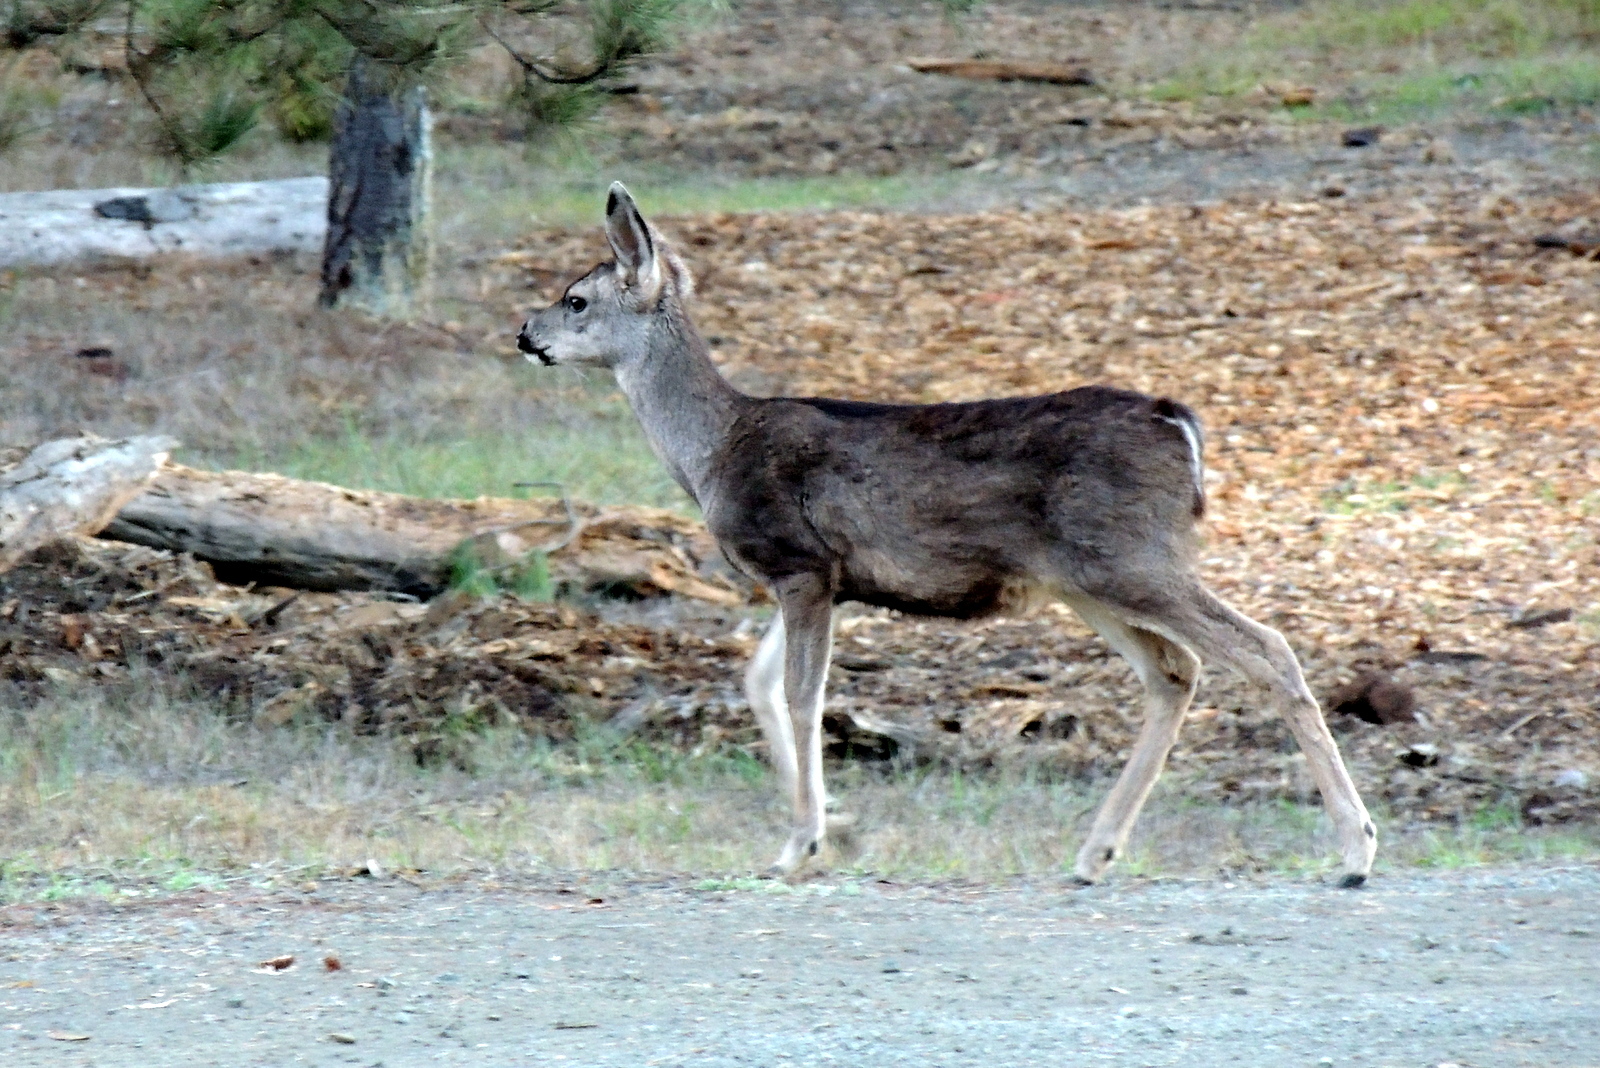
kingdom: Animalia
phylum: Chordata
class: Mammalia
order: Artiodactyla
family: Cervidae
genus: Odocoileus
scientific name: Odocoileus hemionus
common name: Mule deer
